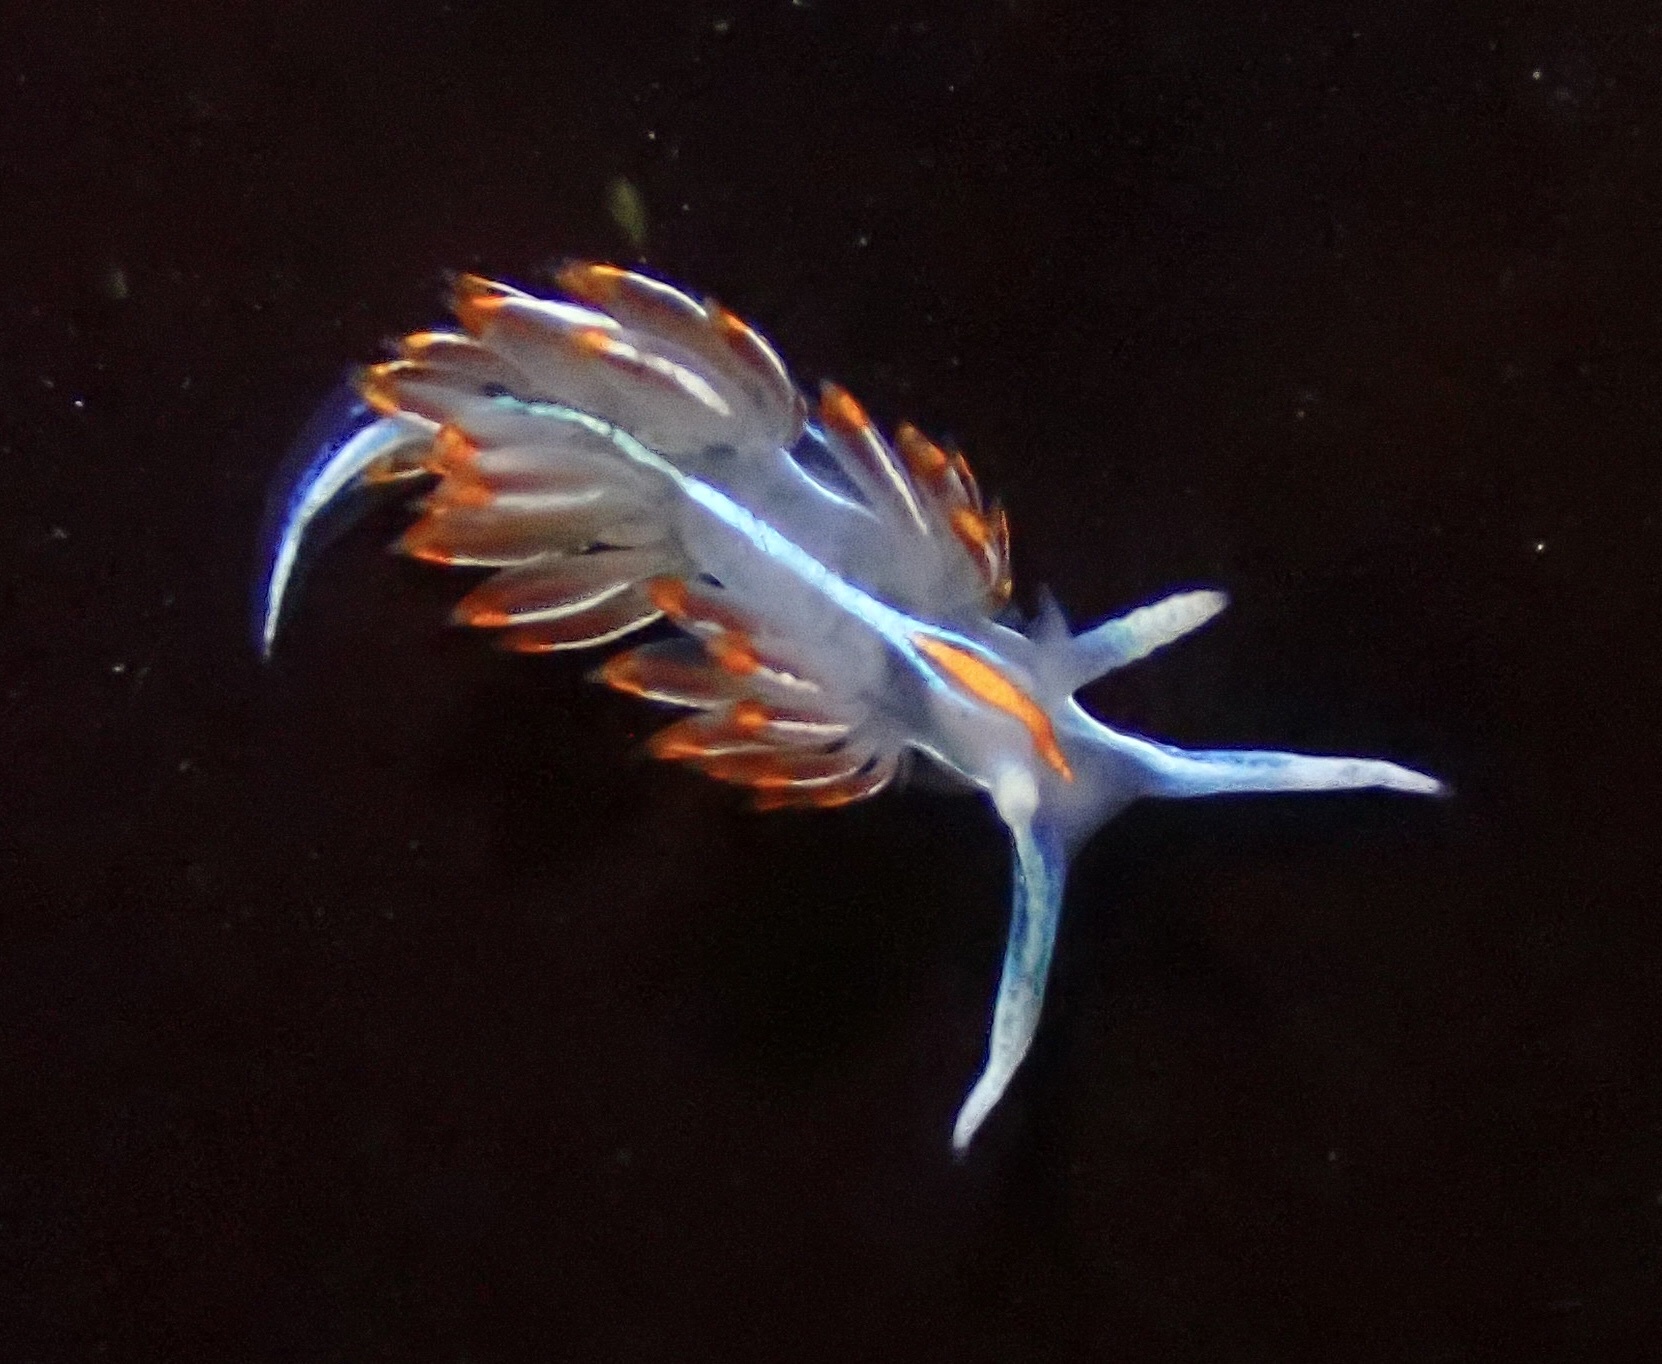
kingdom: Animalia
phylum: Mollusca
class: Gastropoda
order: Nudibranchia
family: Myrrhinidae
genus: Hermissenda
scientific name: Hermissenda crassicornis
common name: Hermissenda
